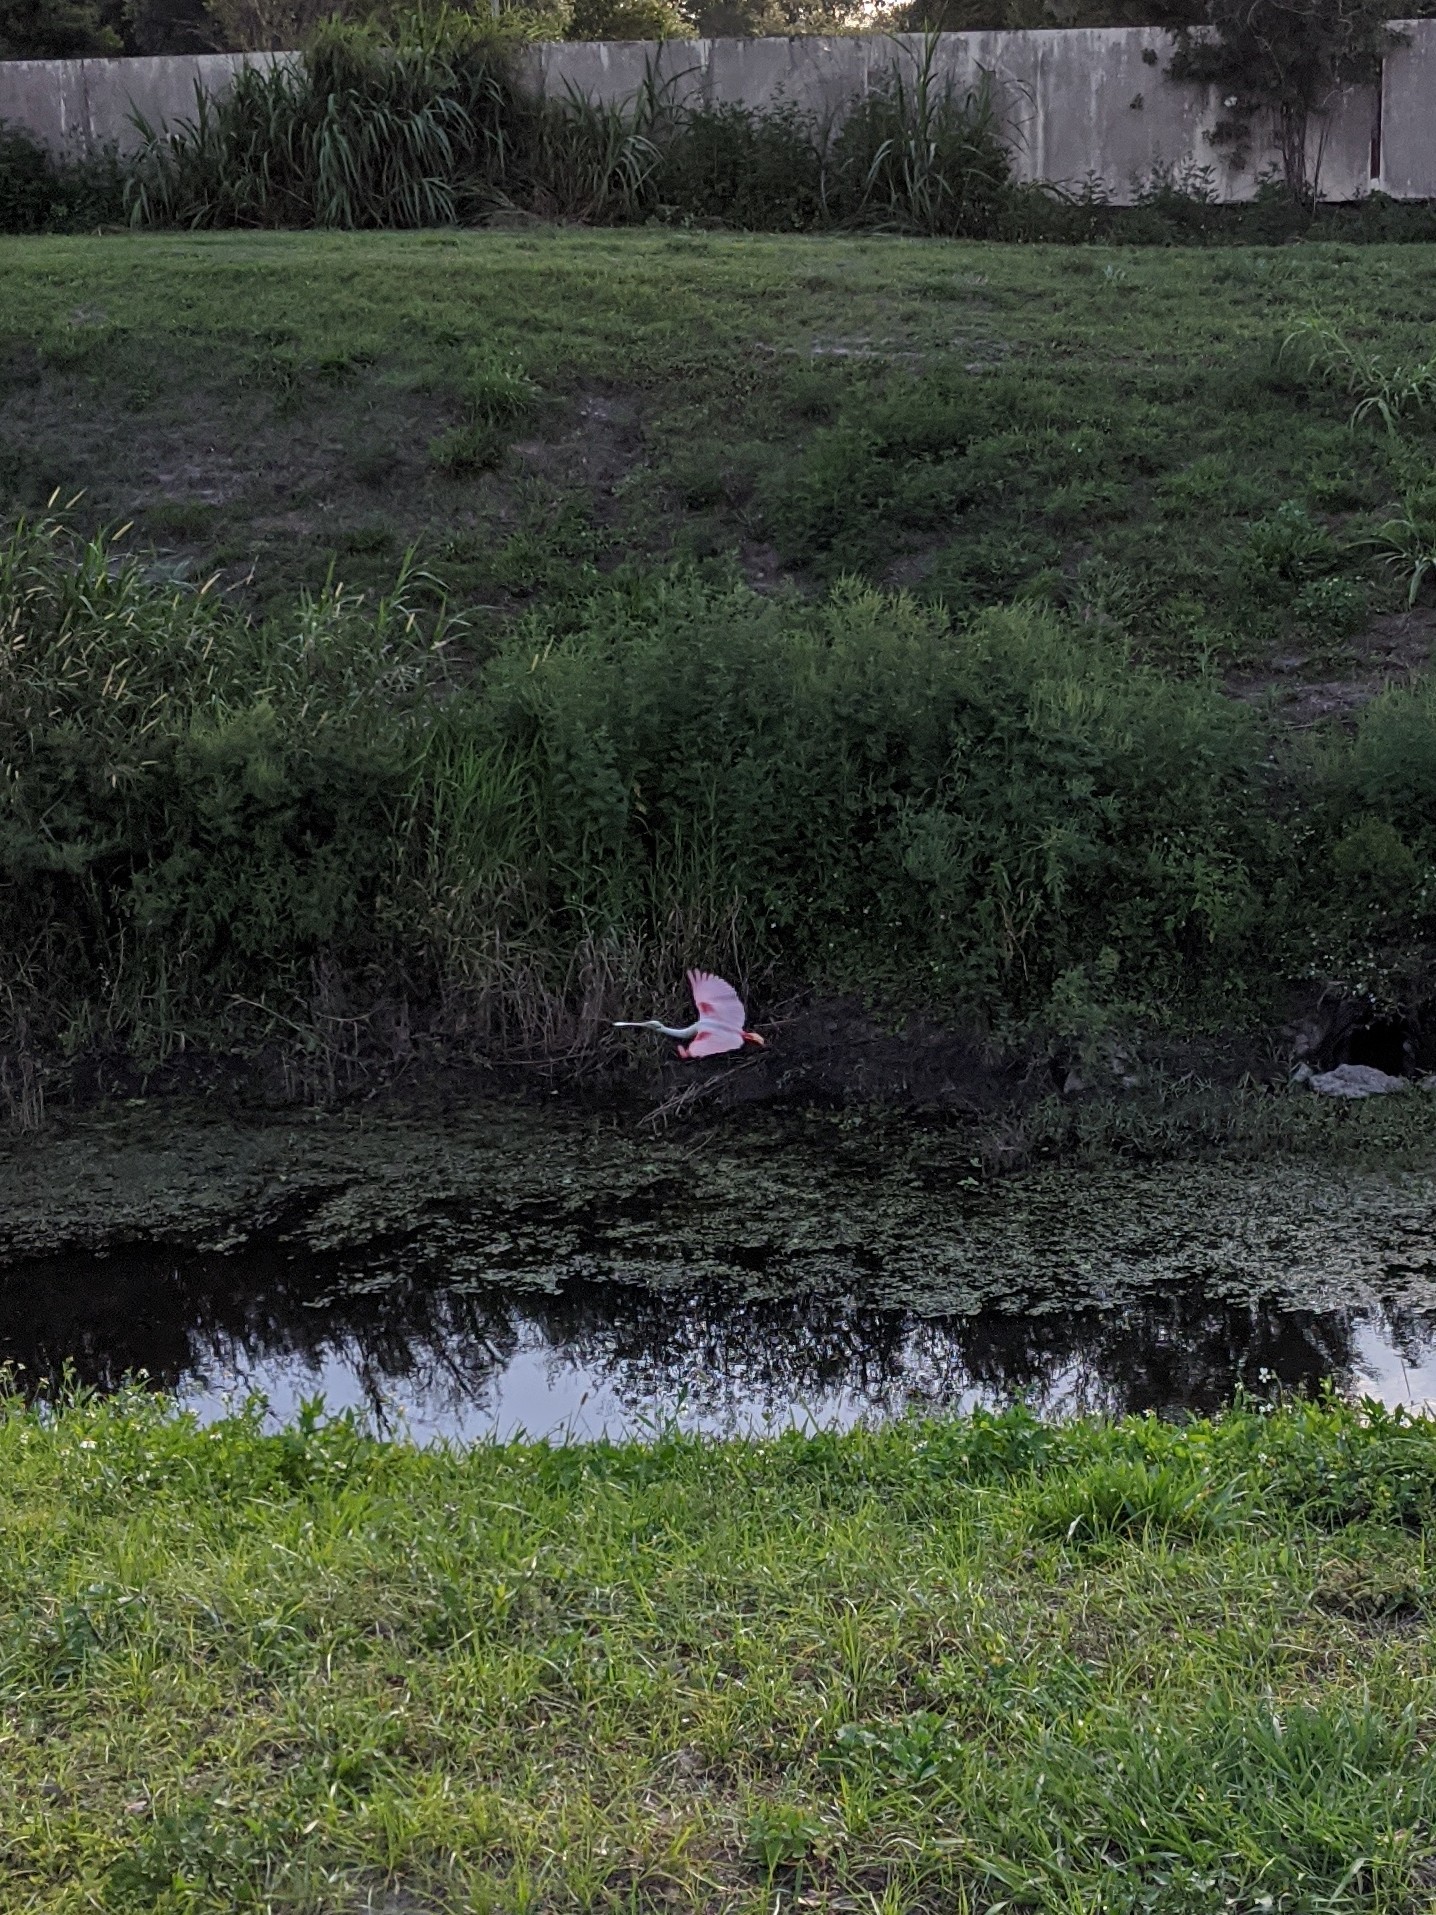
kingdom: Animalia
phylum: Chordata
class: Aves
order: Pelecaniformes
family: Threskiornithidae
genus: Platalea
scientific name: Platalea ajaja
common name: Roseate spoonbill
